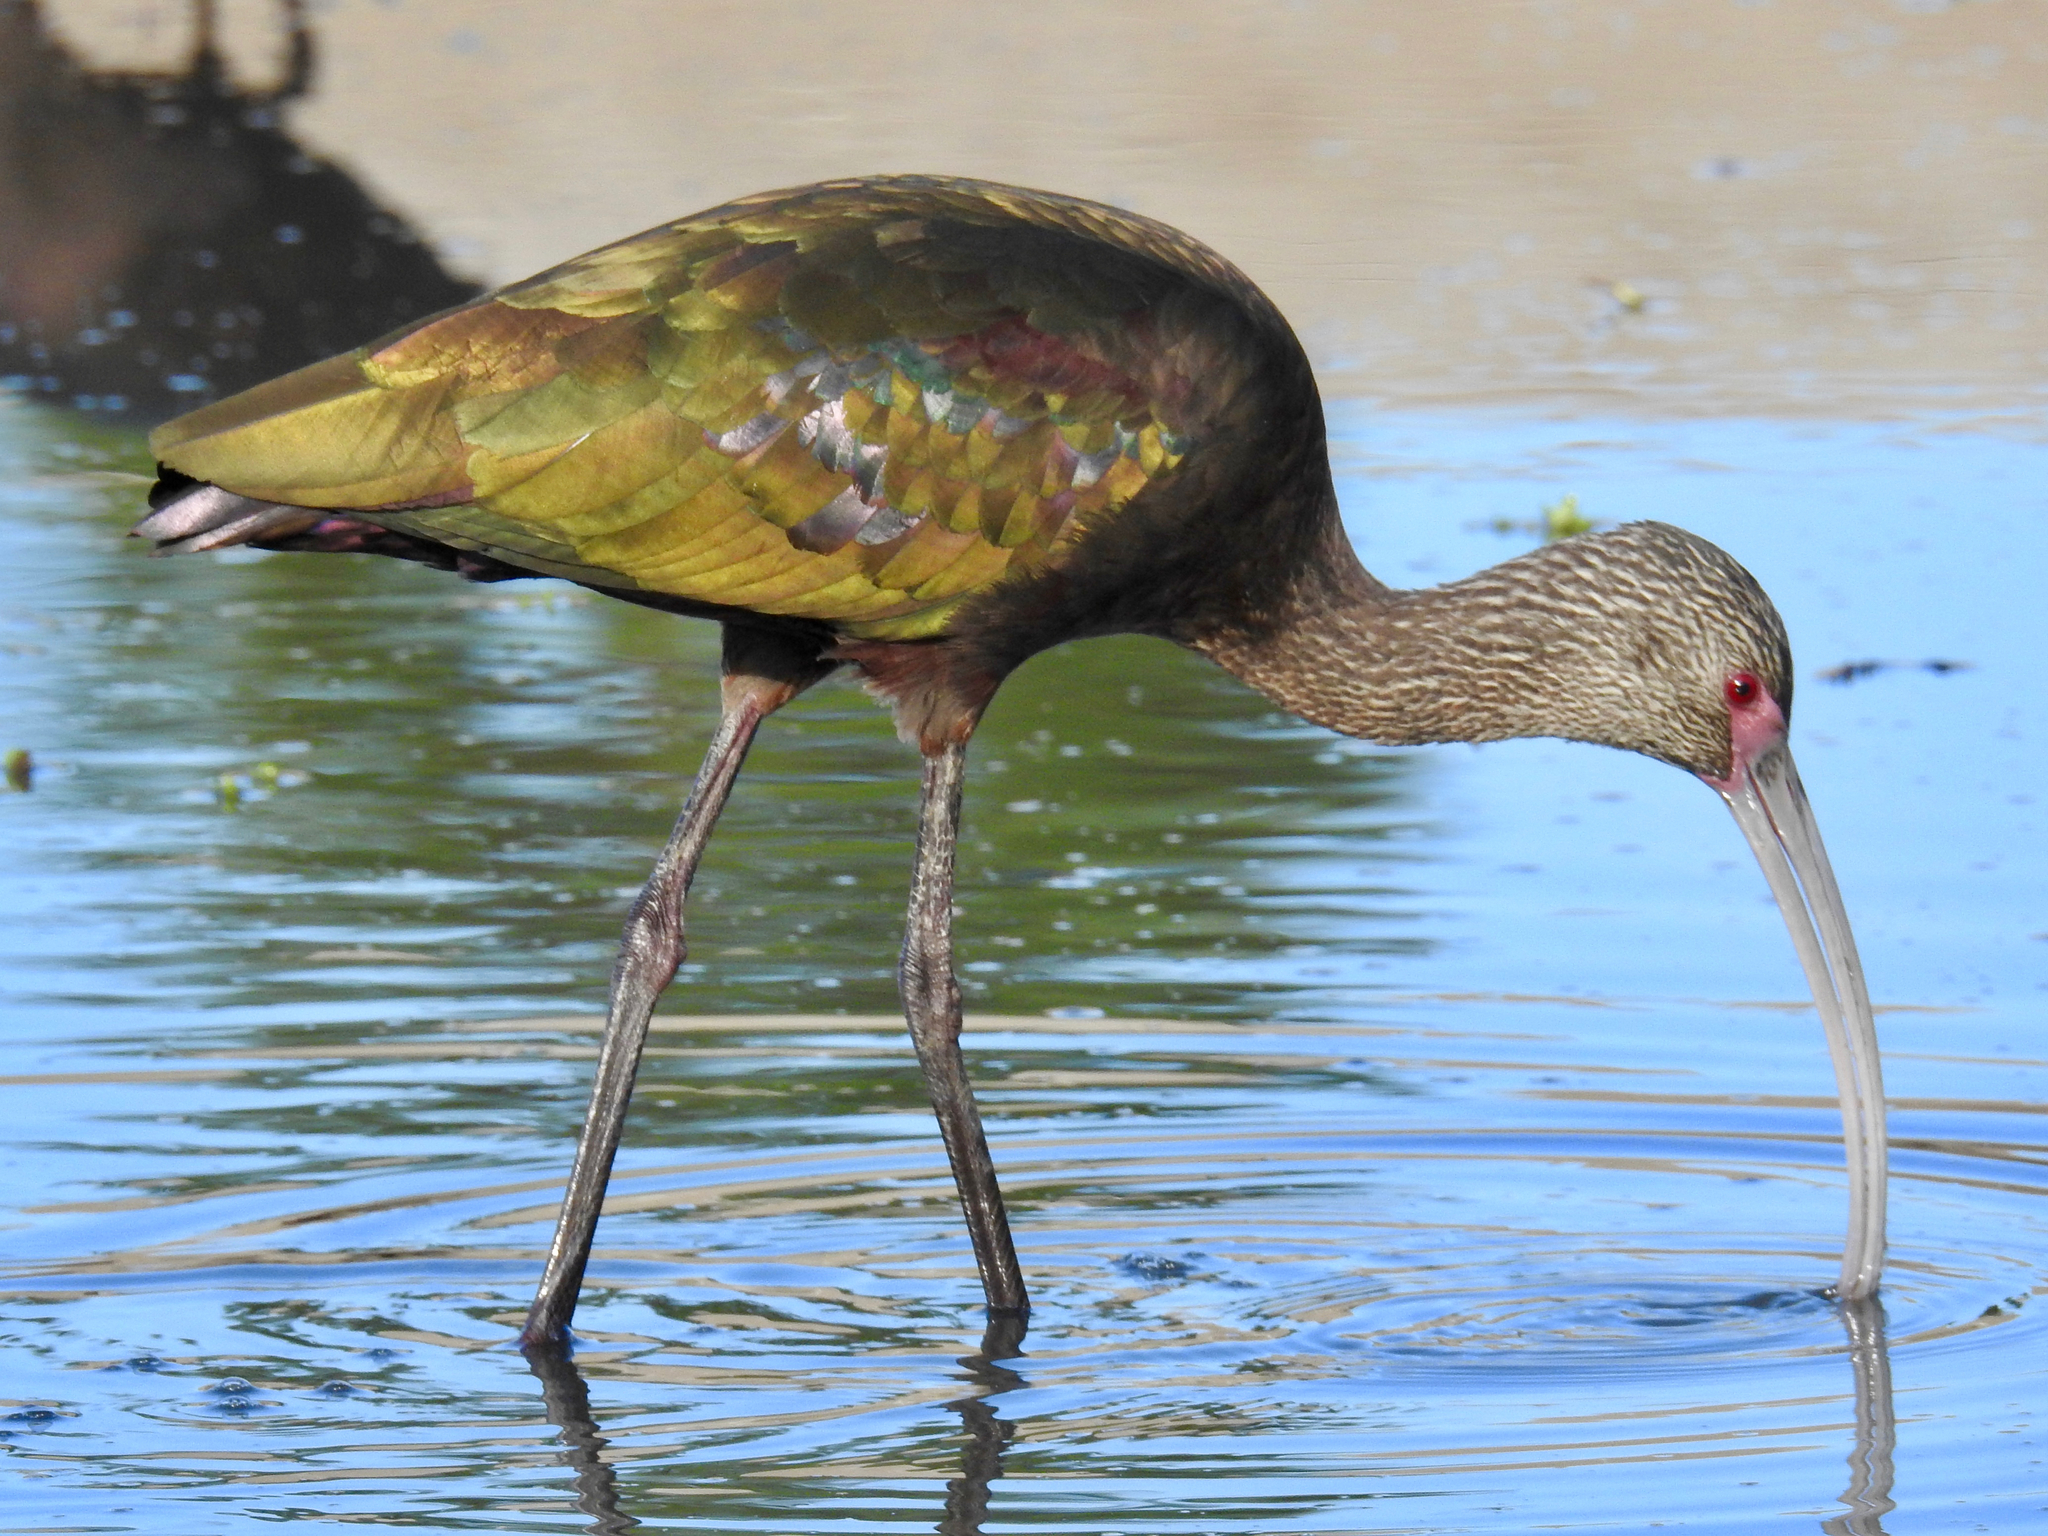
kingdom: Animalia
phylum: Chordata
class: Aves
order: Pelecaniformes
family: Threskiornithidae
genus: Plegadis
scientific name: Plegadis chihi
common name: White-faced ibis
